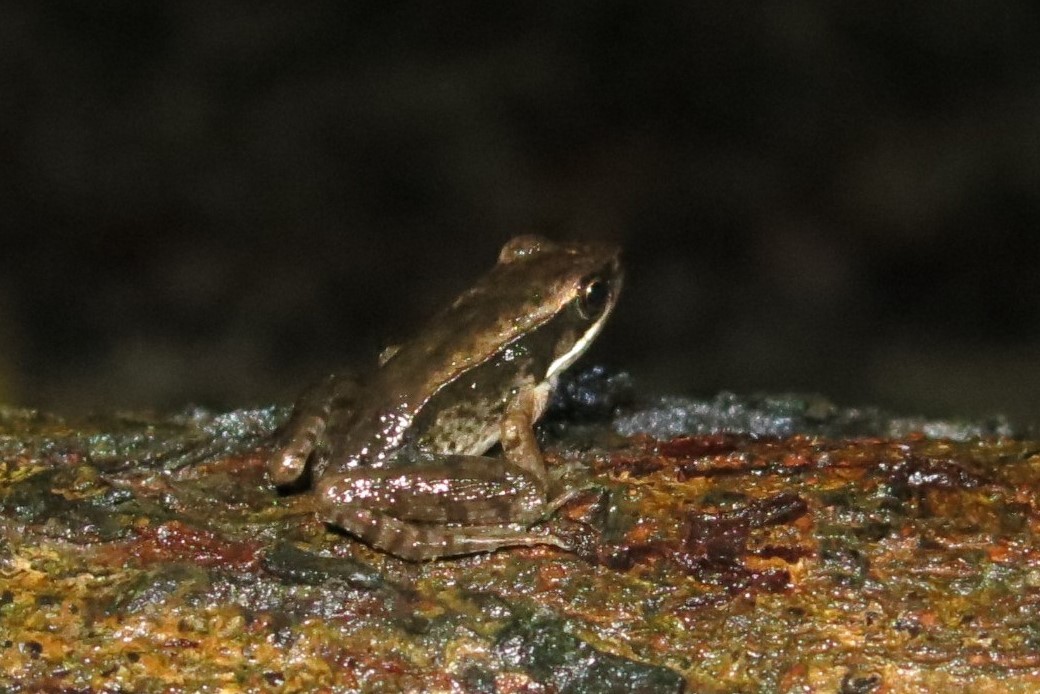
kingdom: Animalia
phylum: Chordata
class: Amphibia
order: Anura
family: Ranidae
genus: Nidirana
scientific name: Nidirana adenopleura
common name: Olive frog
